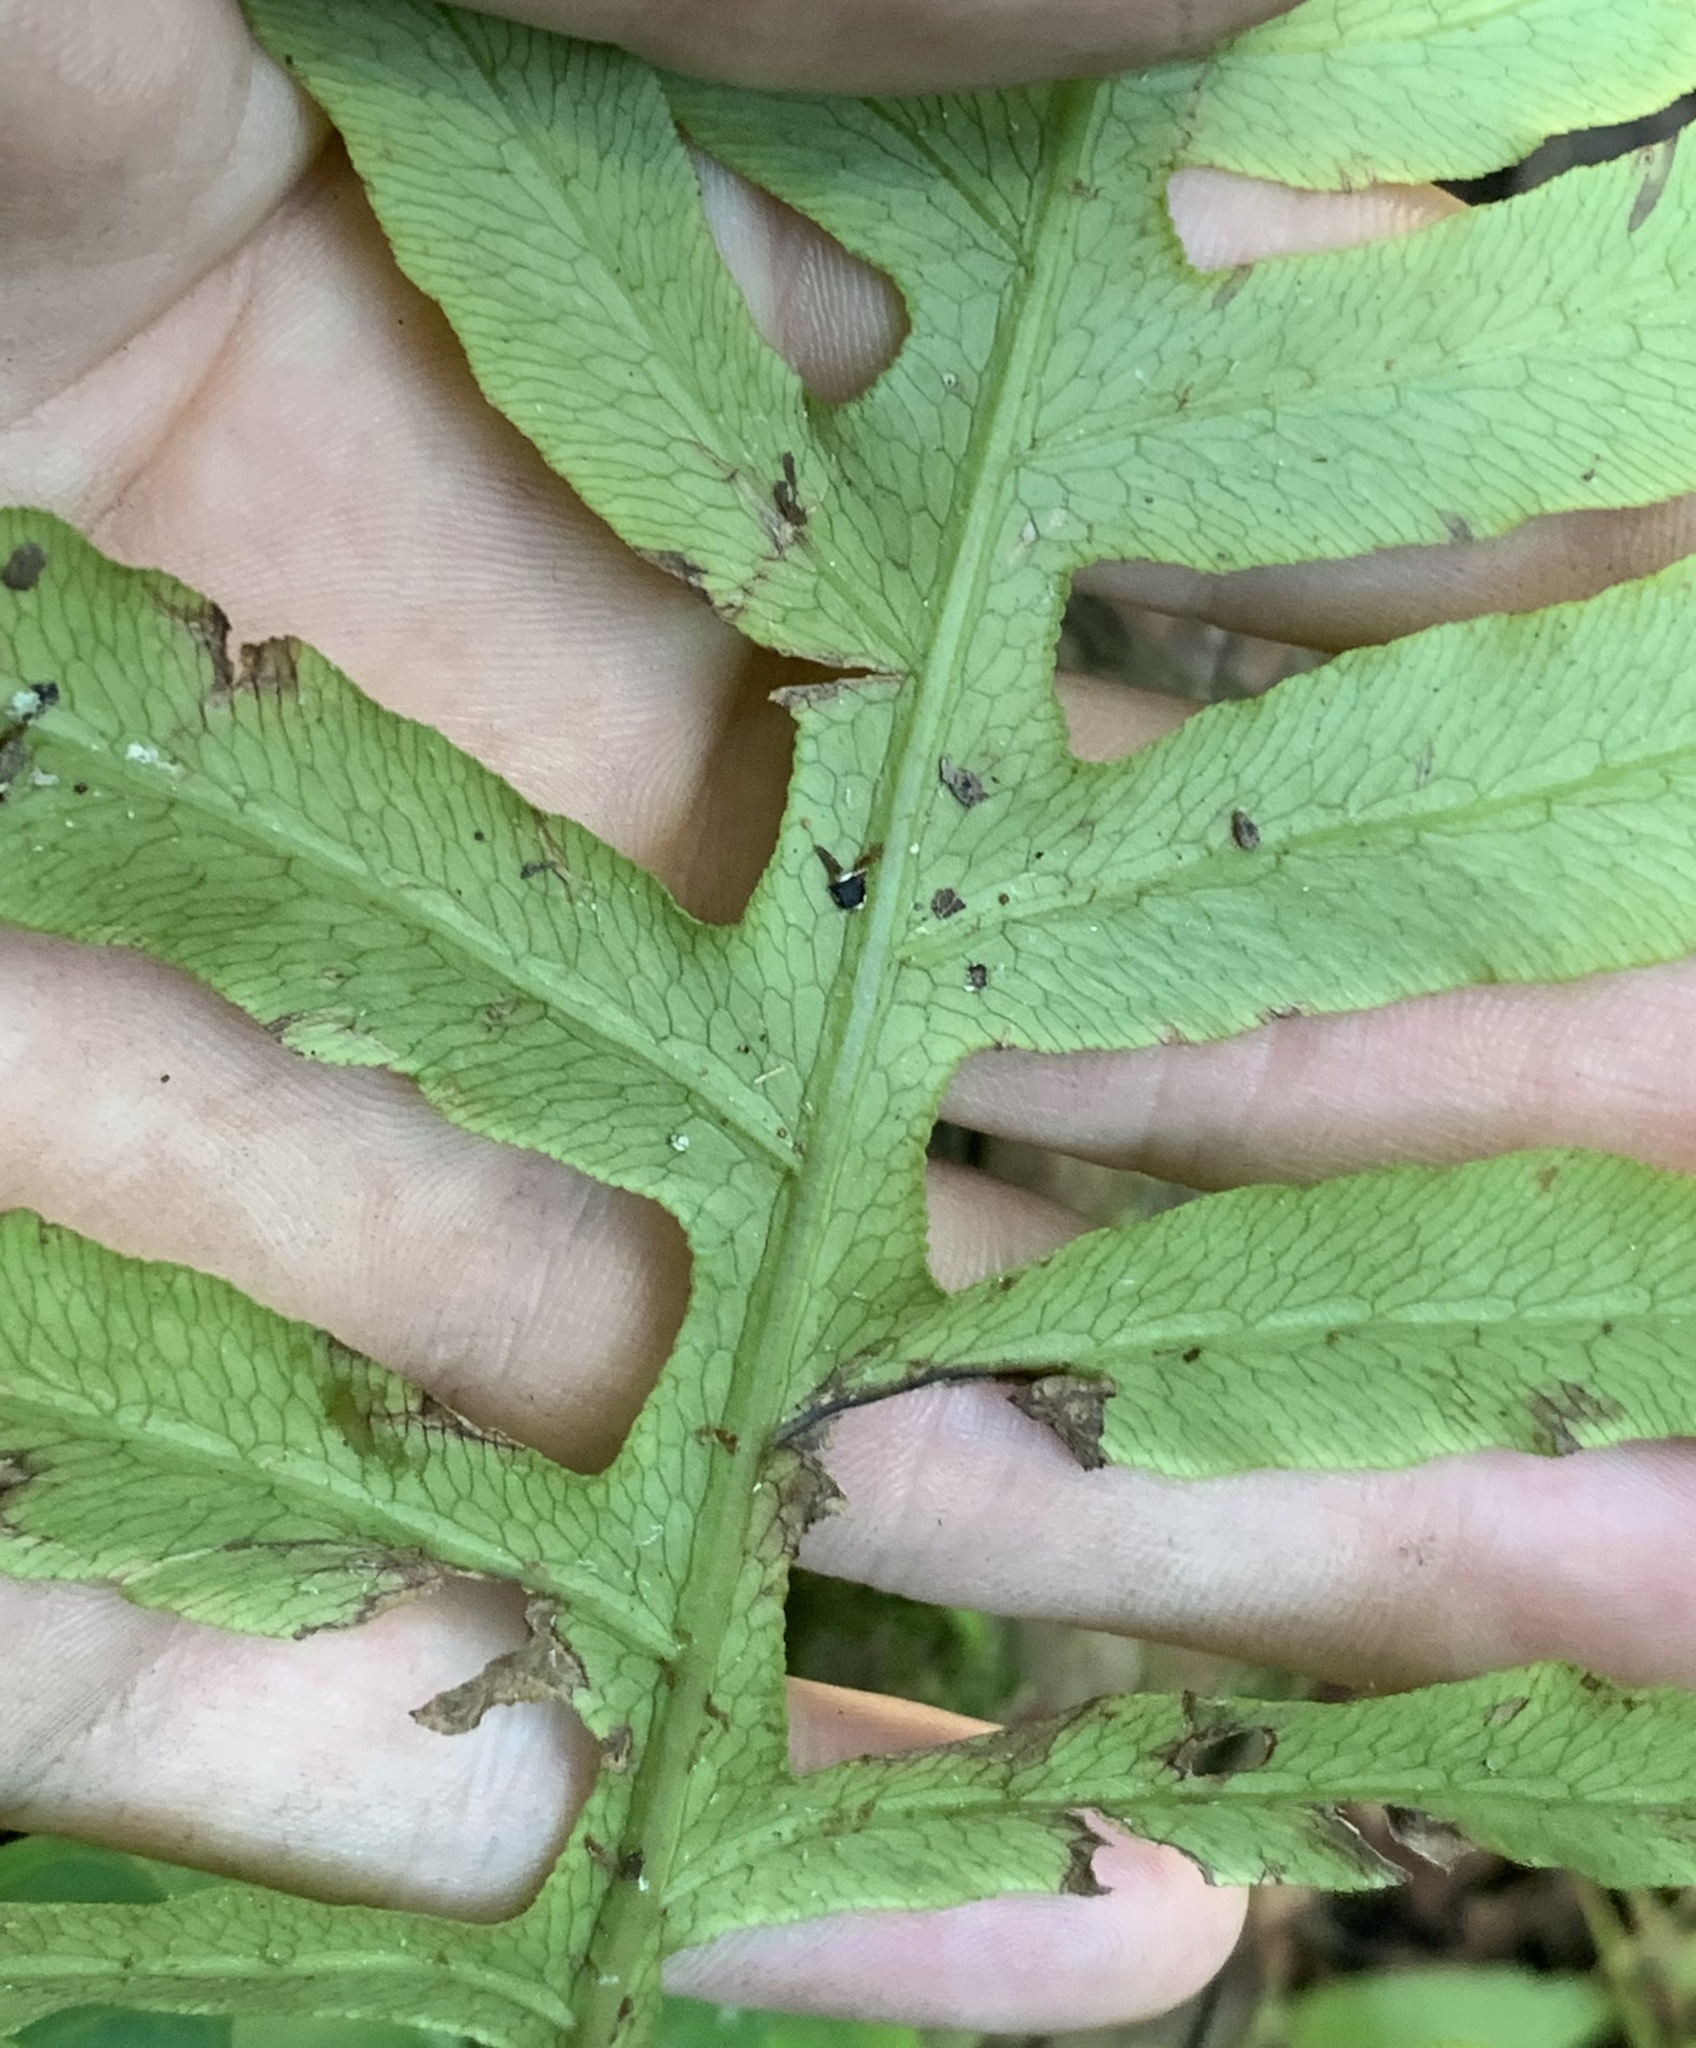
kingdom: Plantae
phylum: Tracheophyta
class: Polypodiopsida
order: Polypodiales
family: Blechnaceae
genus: Lorinseria
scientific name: Lorinseria areolata
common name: Dwarf chain fern
